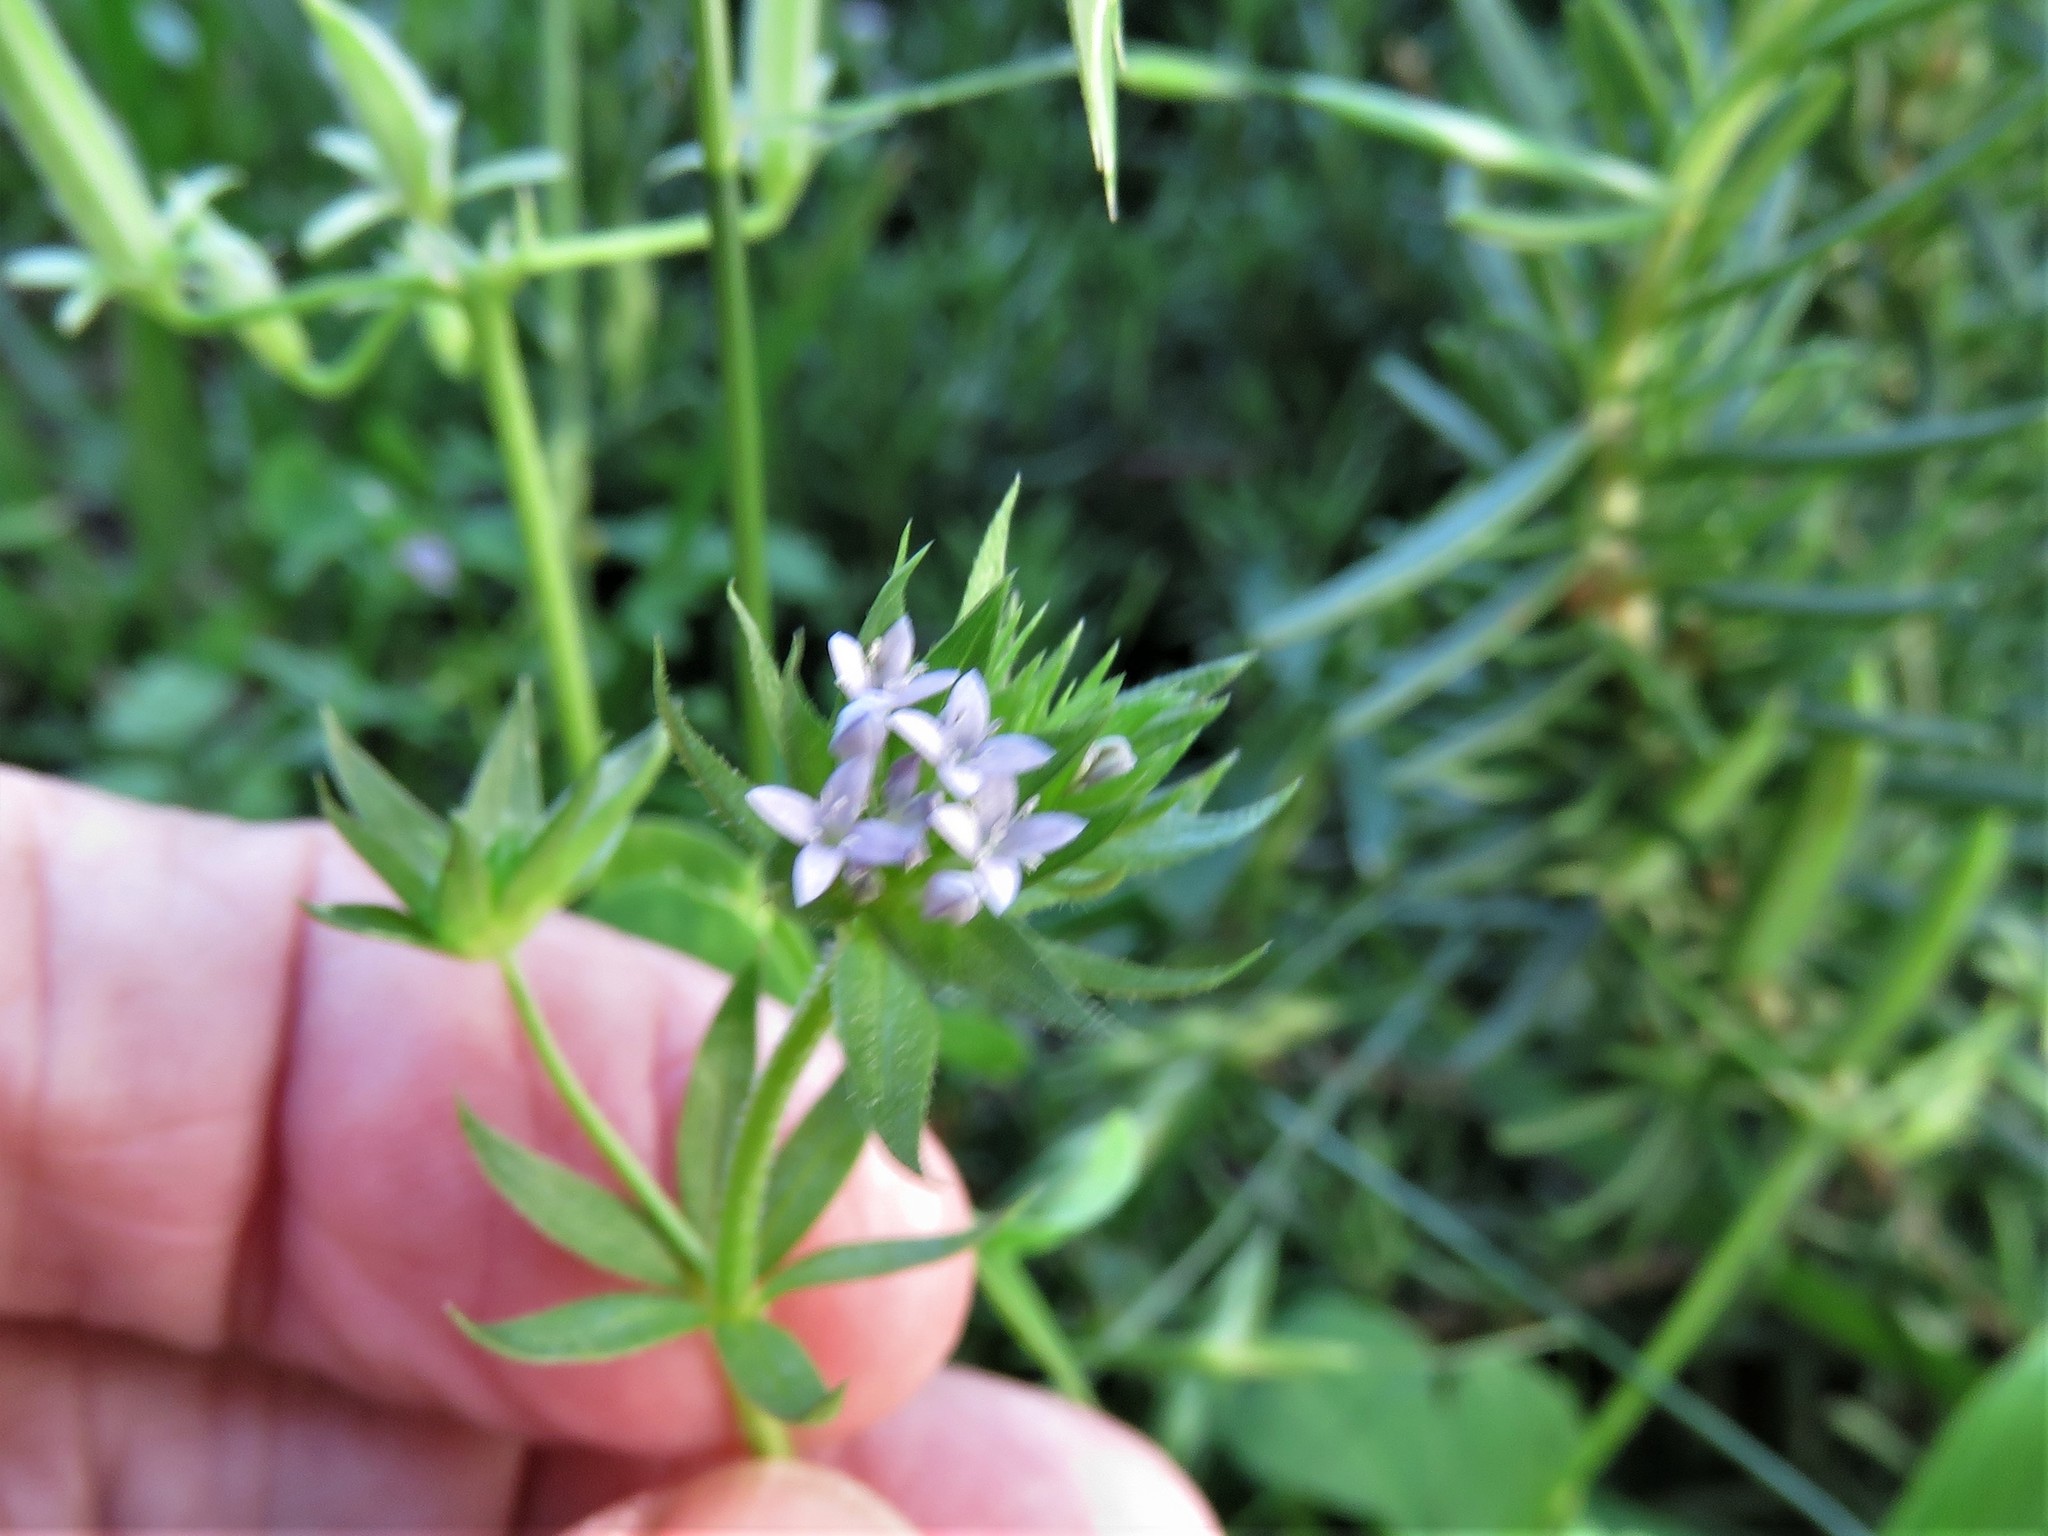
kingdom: Plantae
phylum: Tracheophyta
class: Magnoliopsida
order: Gentianales
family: Rubiaceae
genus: Sherardia
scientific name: Sherardia arvensis
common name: Field madder
